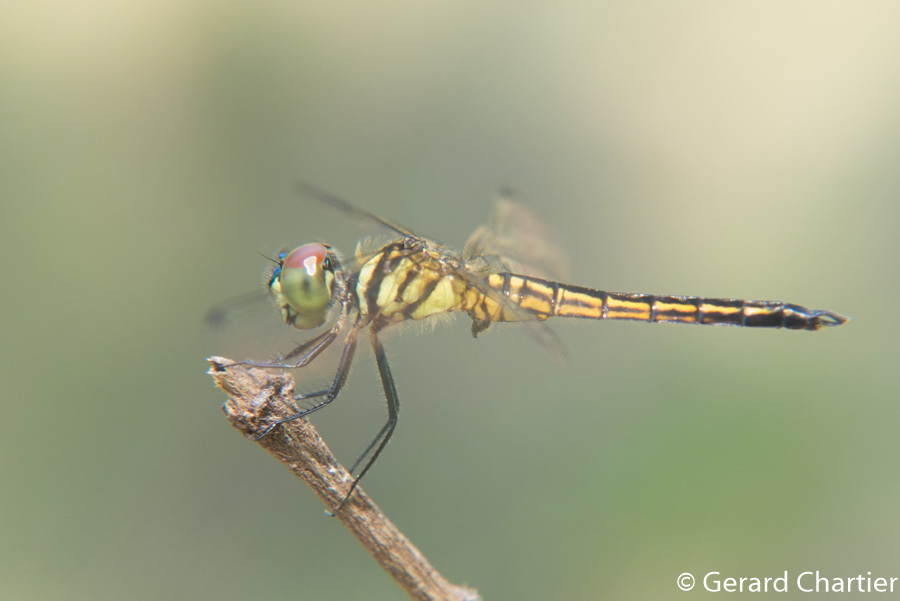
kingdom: Animalia
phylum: Arthropoda
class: Insecta
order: Odonata
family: Libellulidae
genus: Lyriothemis
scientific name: Lyriothemis mortoni
